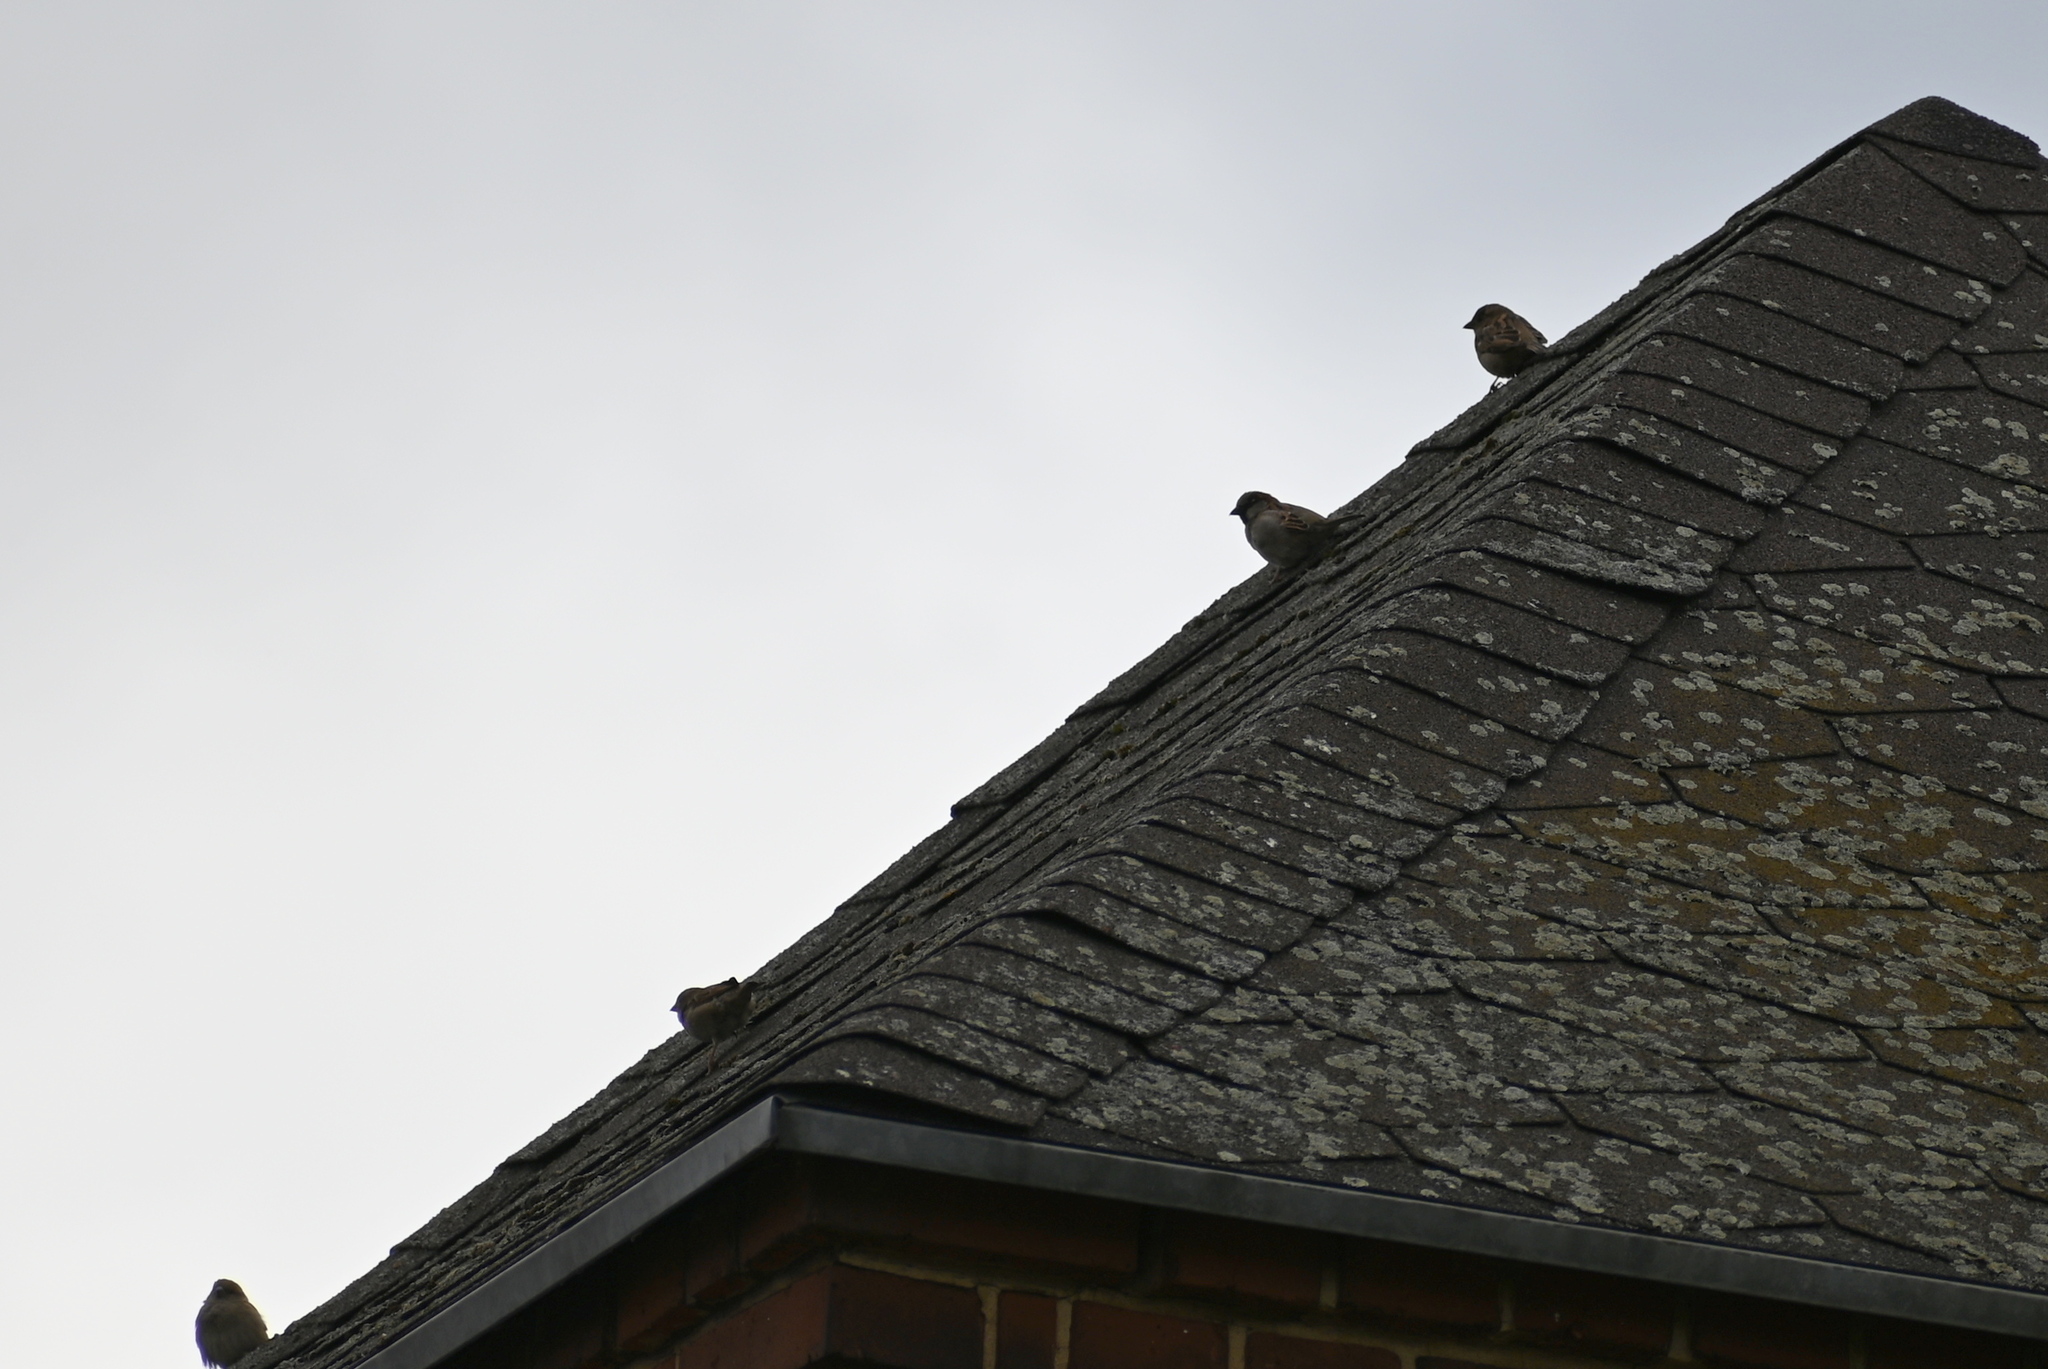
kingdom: Animalia
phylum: Chordata
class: Aves
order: Passeriformes
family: Passeridae
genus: Passer
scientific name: Passer domesticus
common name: House sparrow
